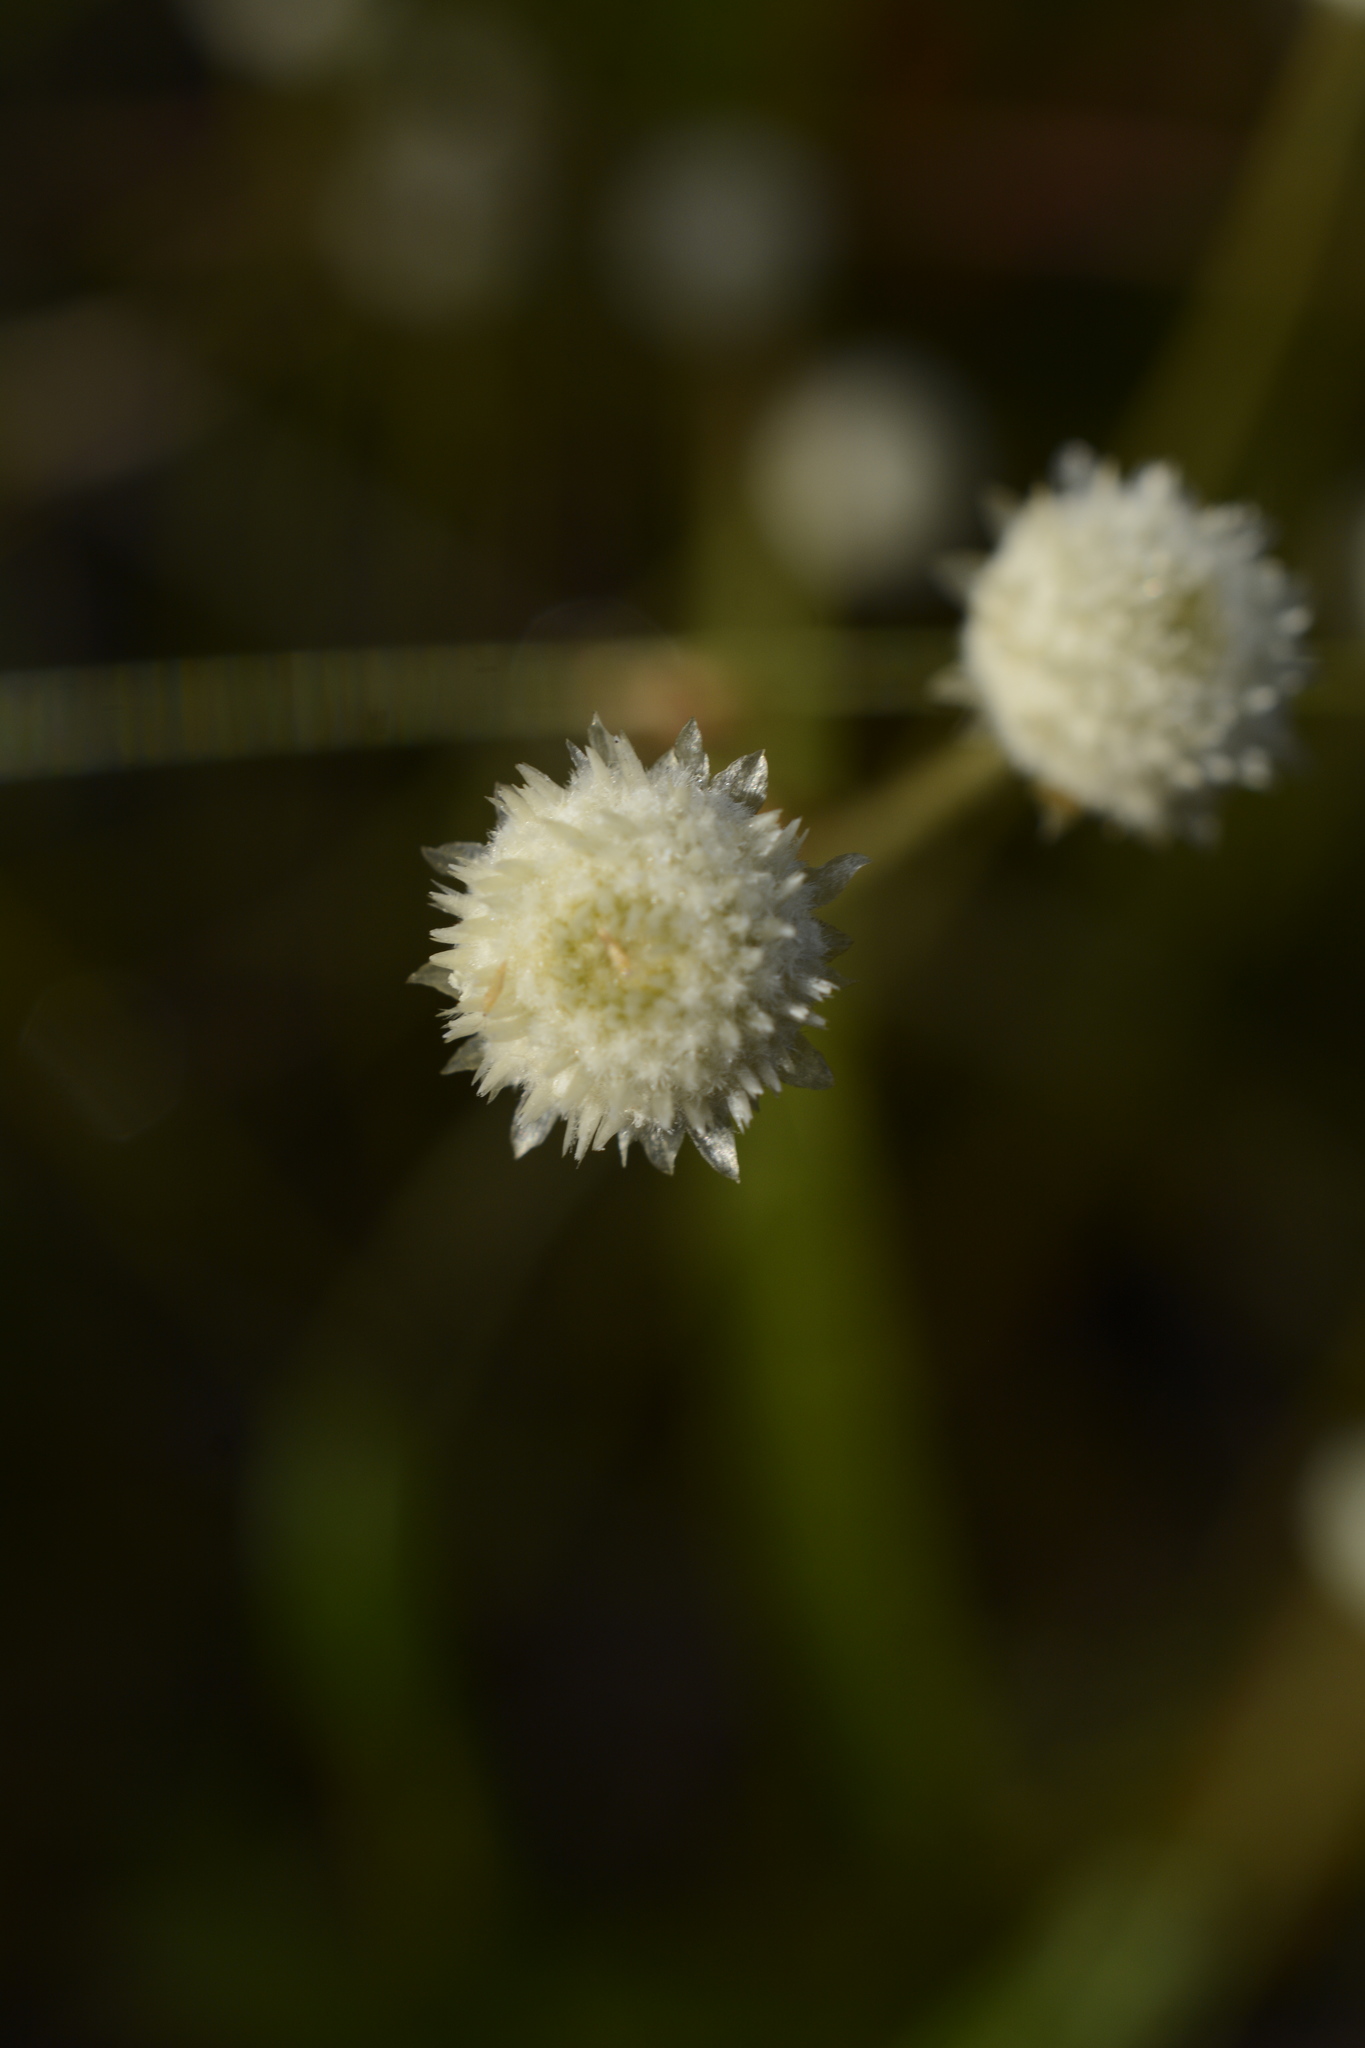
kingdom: Plantae
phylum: Tracheophyta
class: Liliopsida
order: Poales
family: Eriocaulaceae
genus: Syngonanthus
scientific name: Syngonanthus flavidulus
